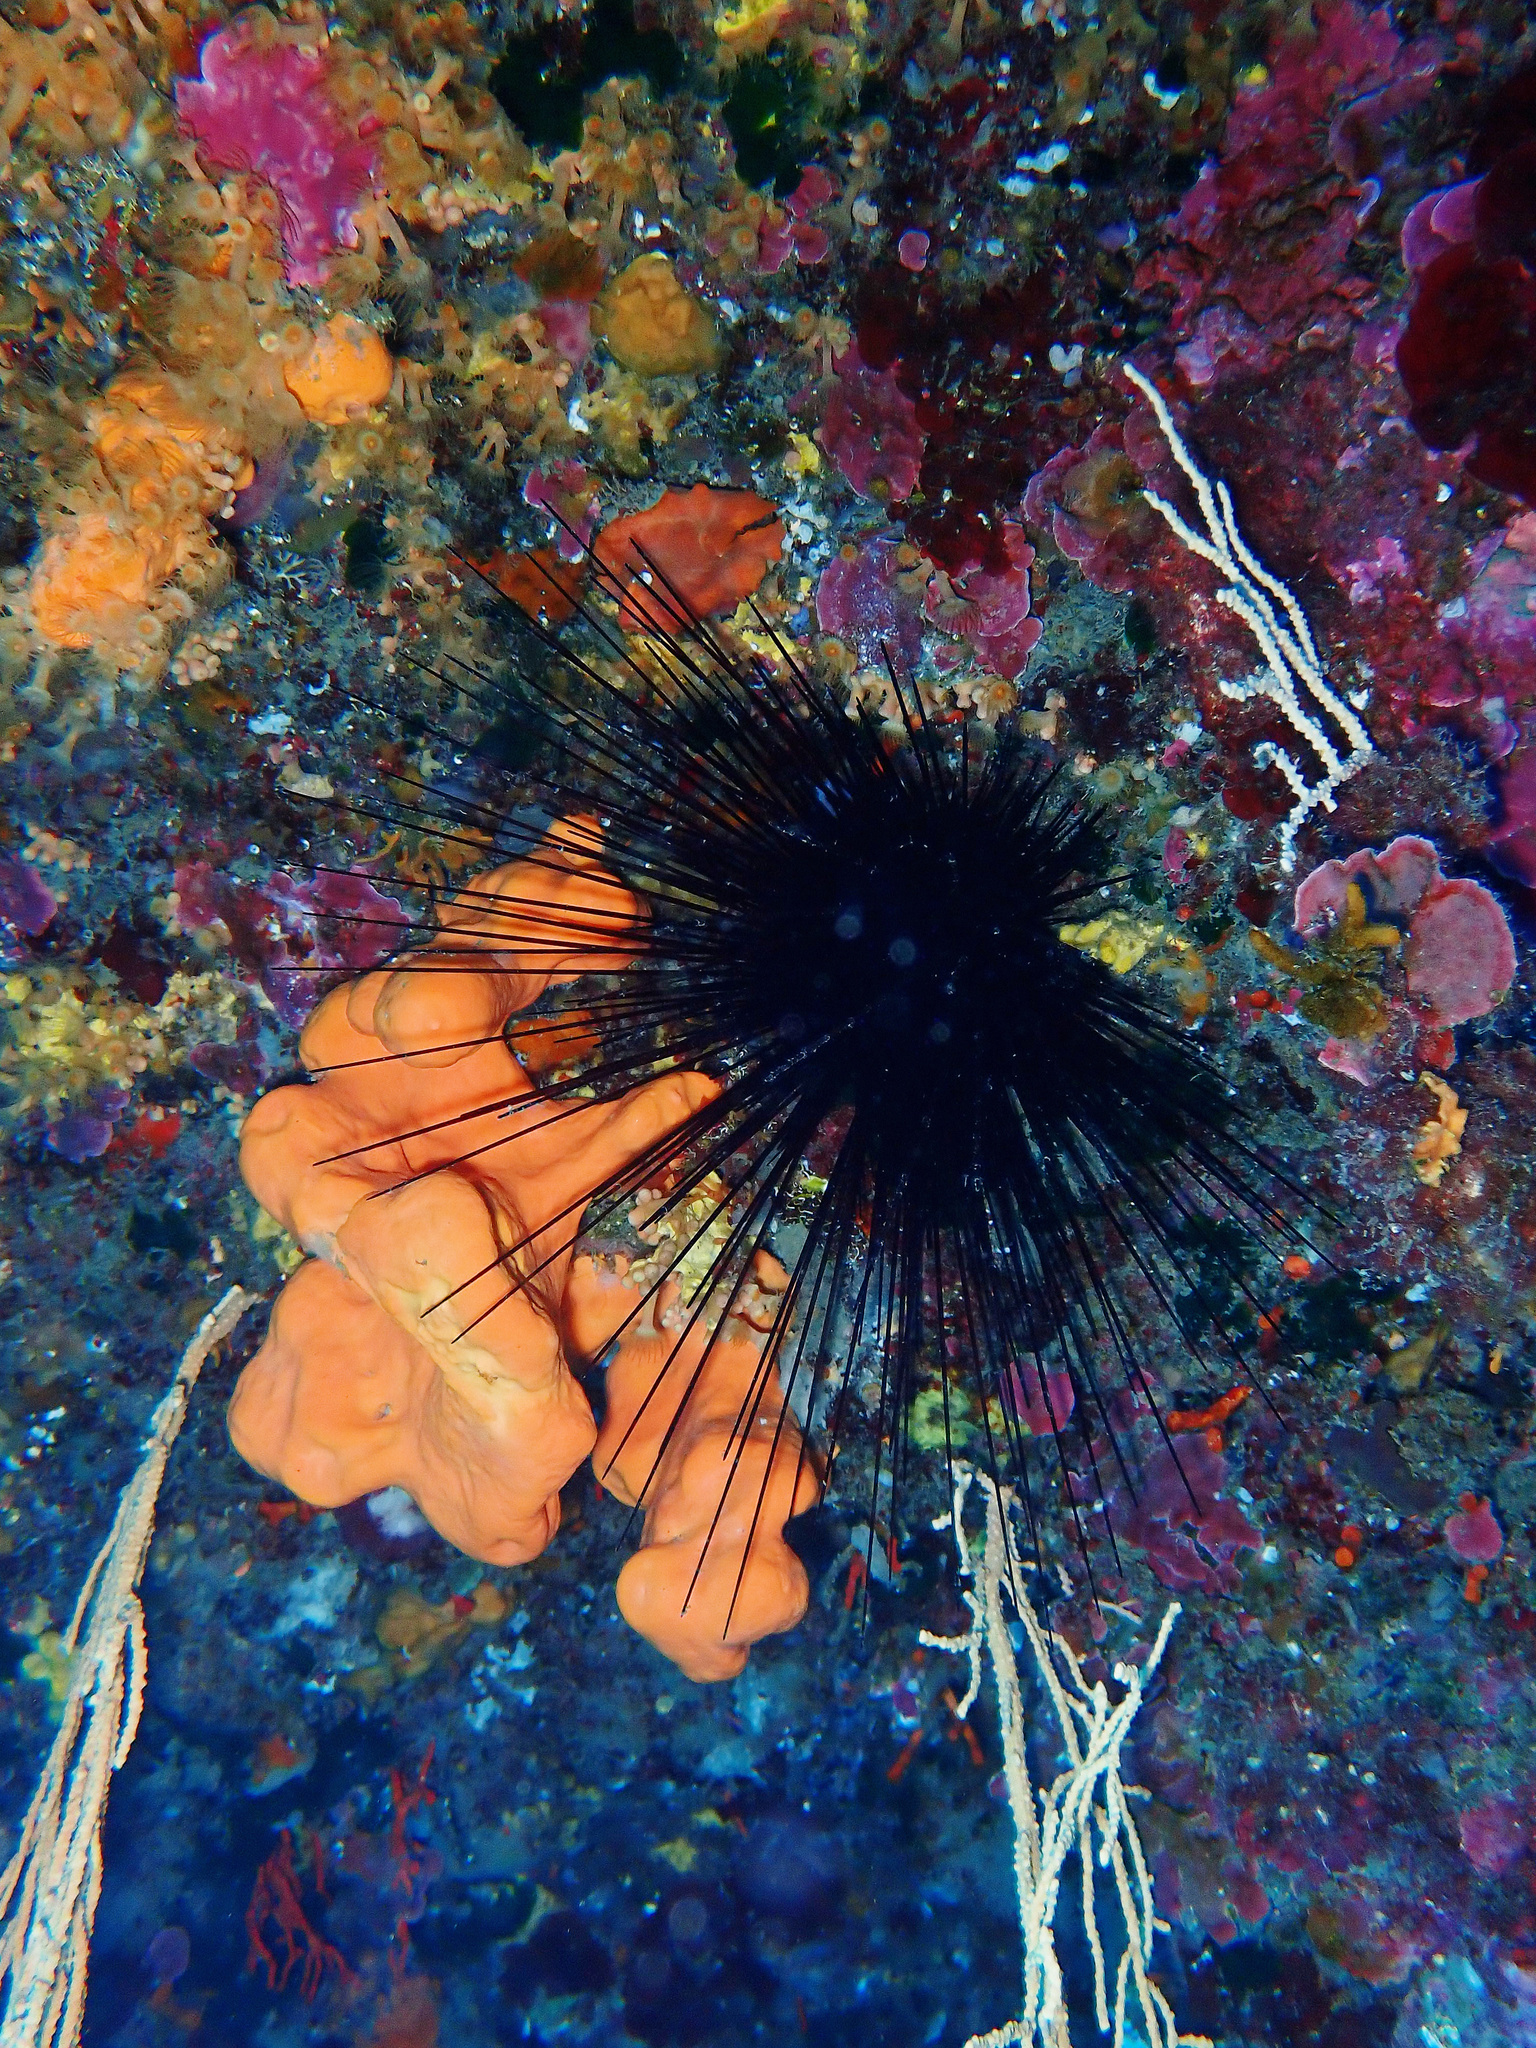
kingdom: Animalia
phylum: Echinodermata
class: Echinoidea
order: Diadematoida
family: Diadematidae
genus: Centrostephanus
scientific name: Centrostephanus longispinus
